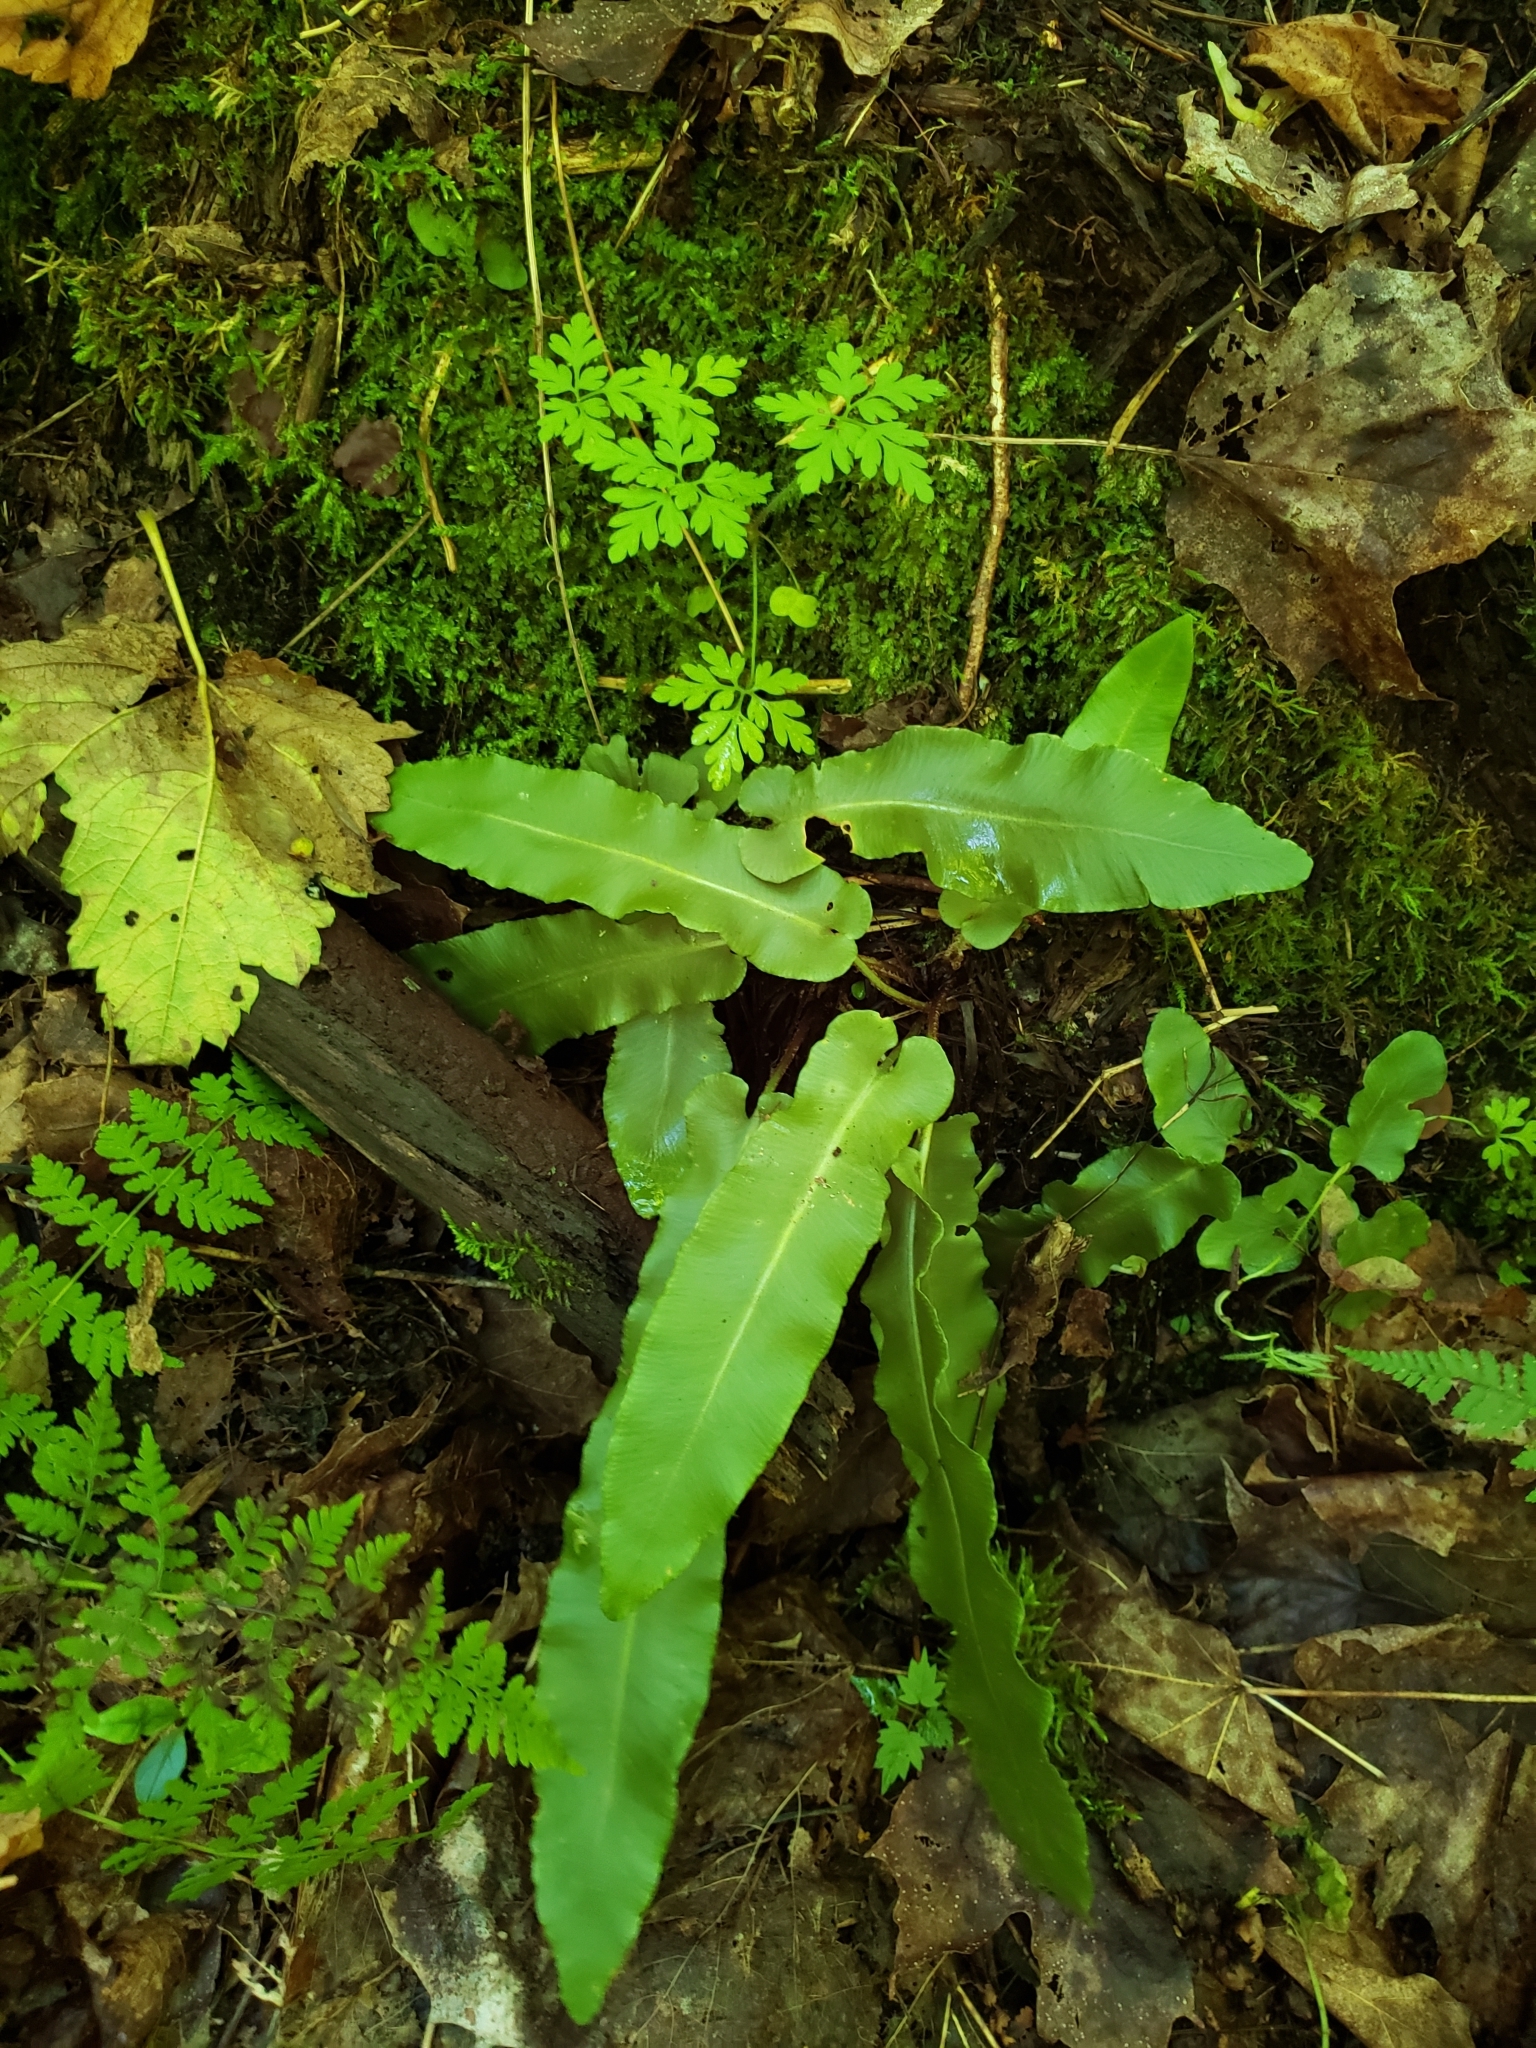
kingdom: Plantae
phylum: Tracheophyta
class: Polypodiopsida
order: Polypodiales
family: Aspleniaceae
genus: Asplenium
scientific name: Asplenium scolopendrium
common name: Hart's-tongue fern
